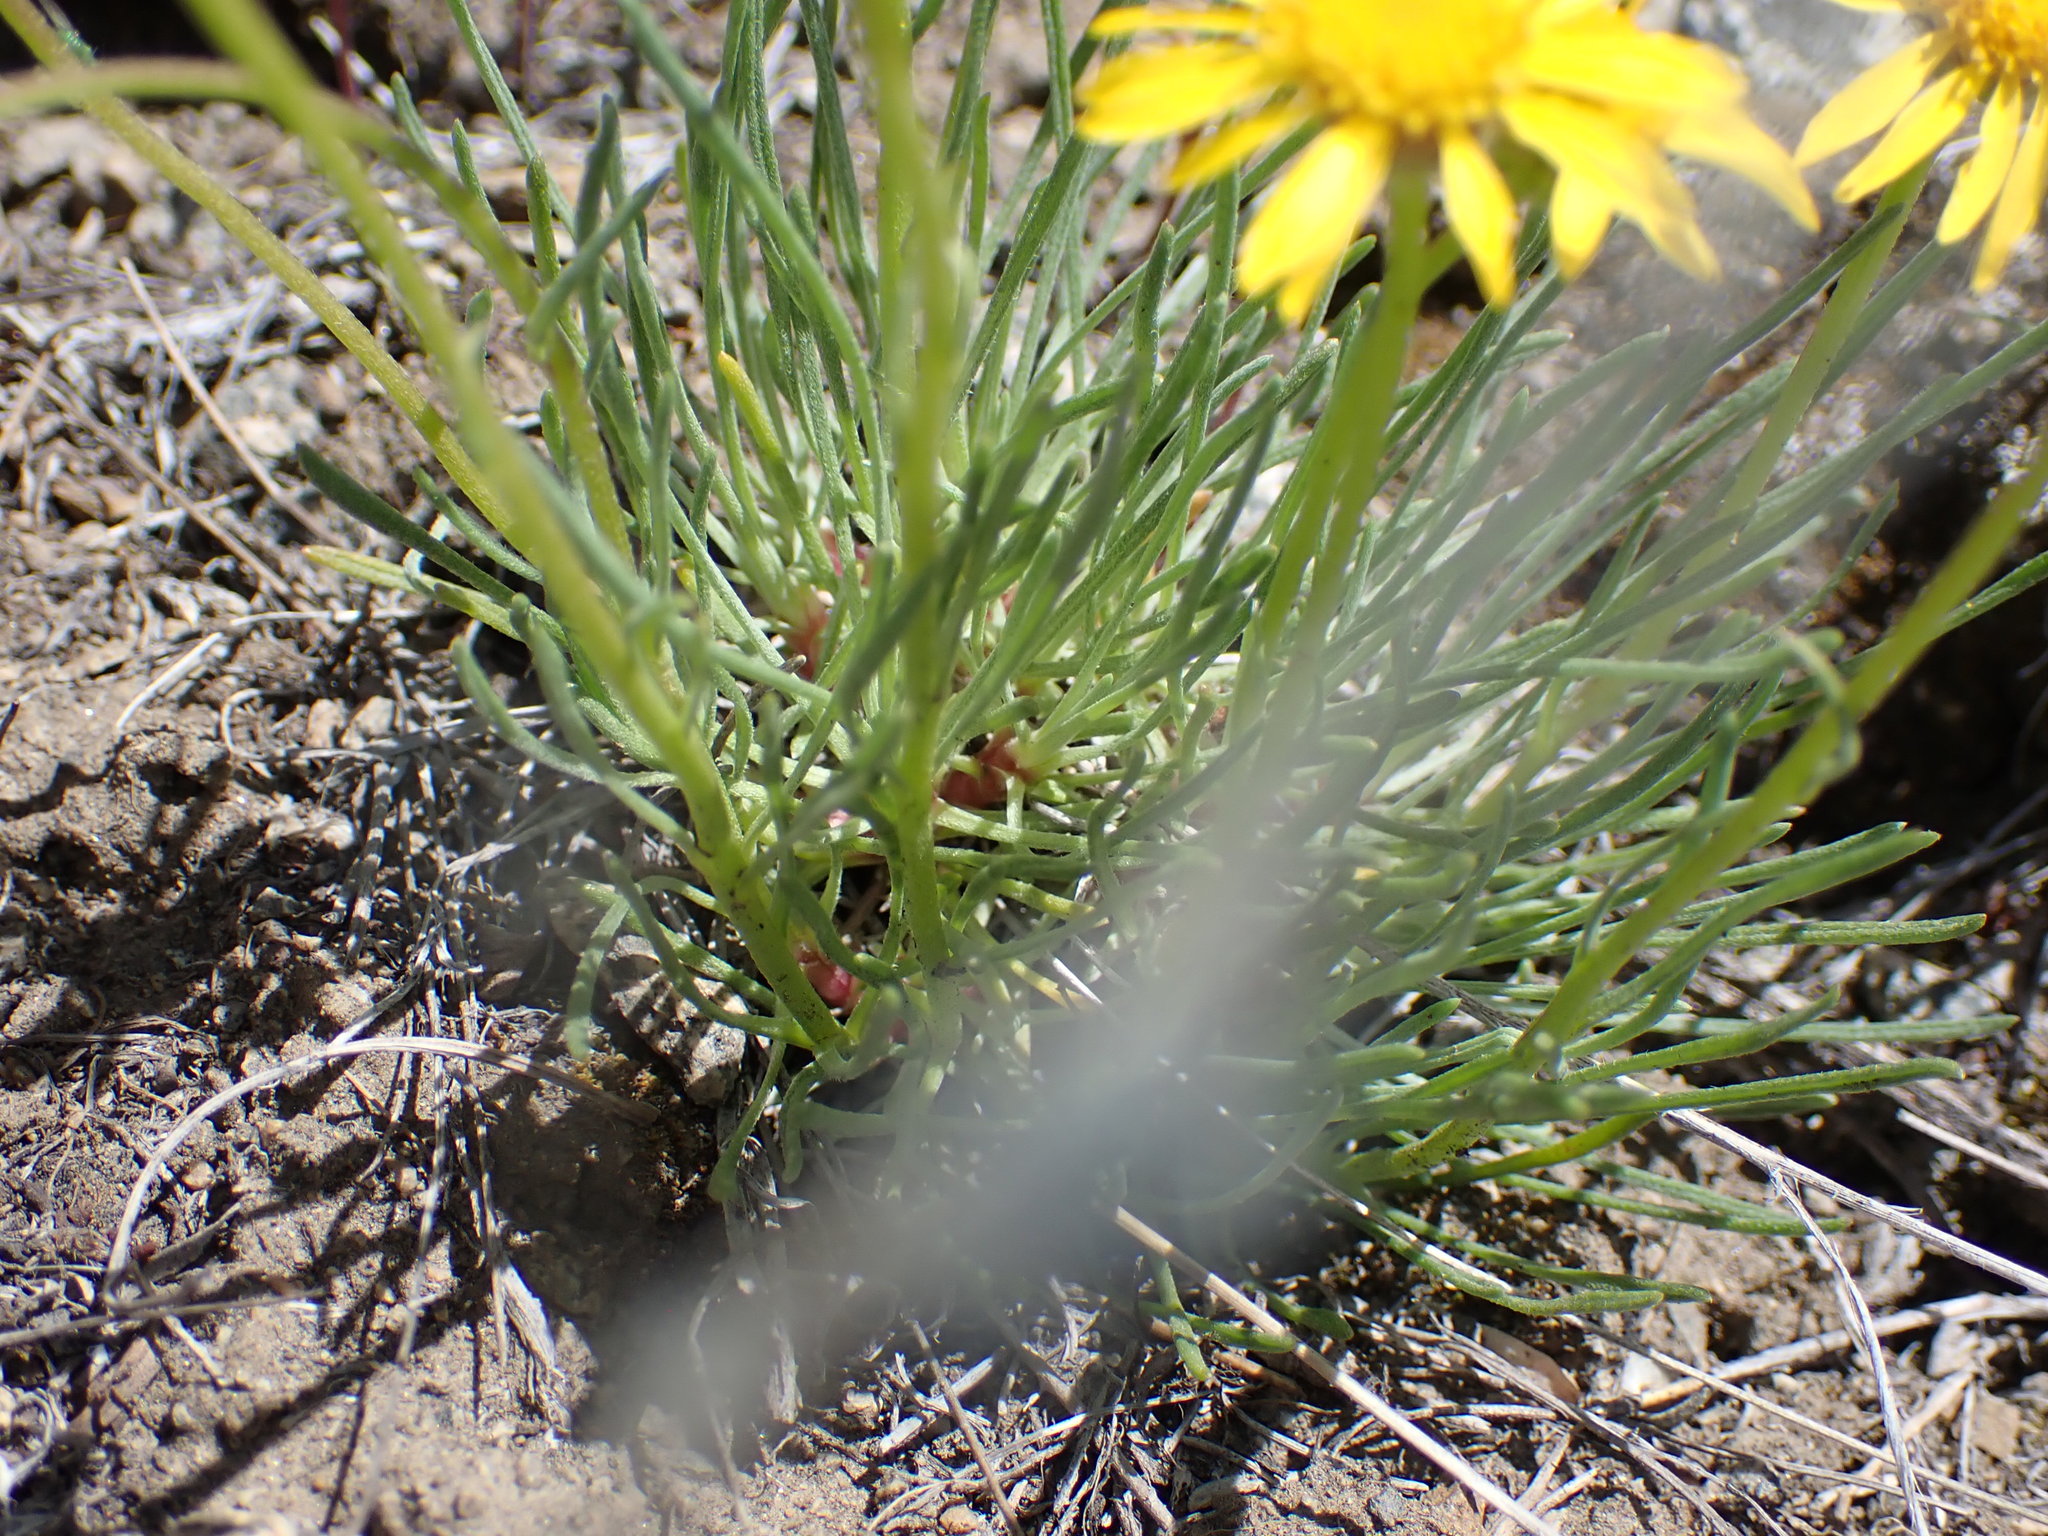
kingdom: Plantae
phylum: Tracheophyta
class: Magnoliopsida
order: Asterales
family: Asteraceae
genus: Erigeron
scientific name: Erigeron linearis
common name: Desert yellow fleabane
